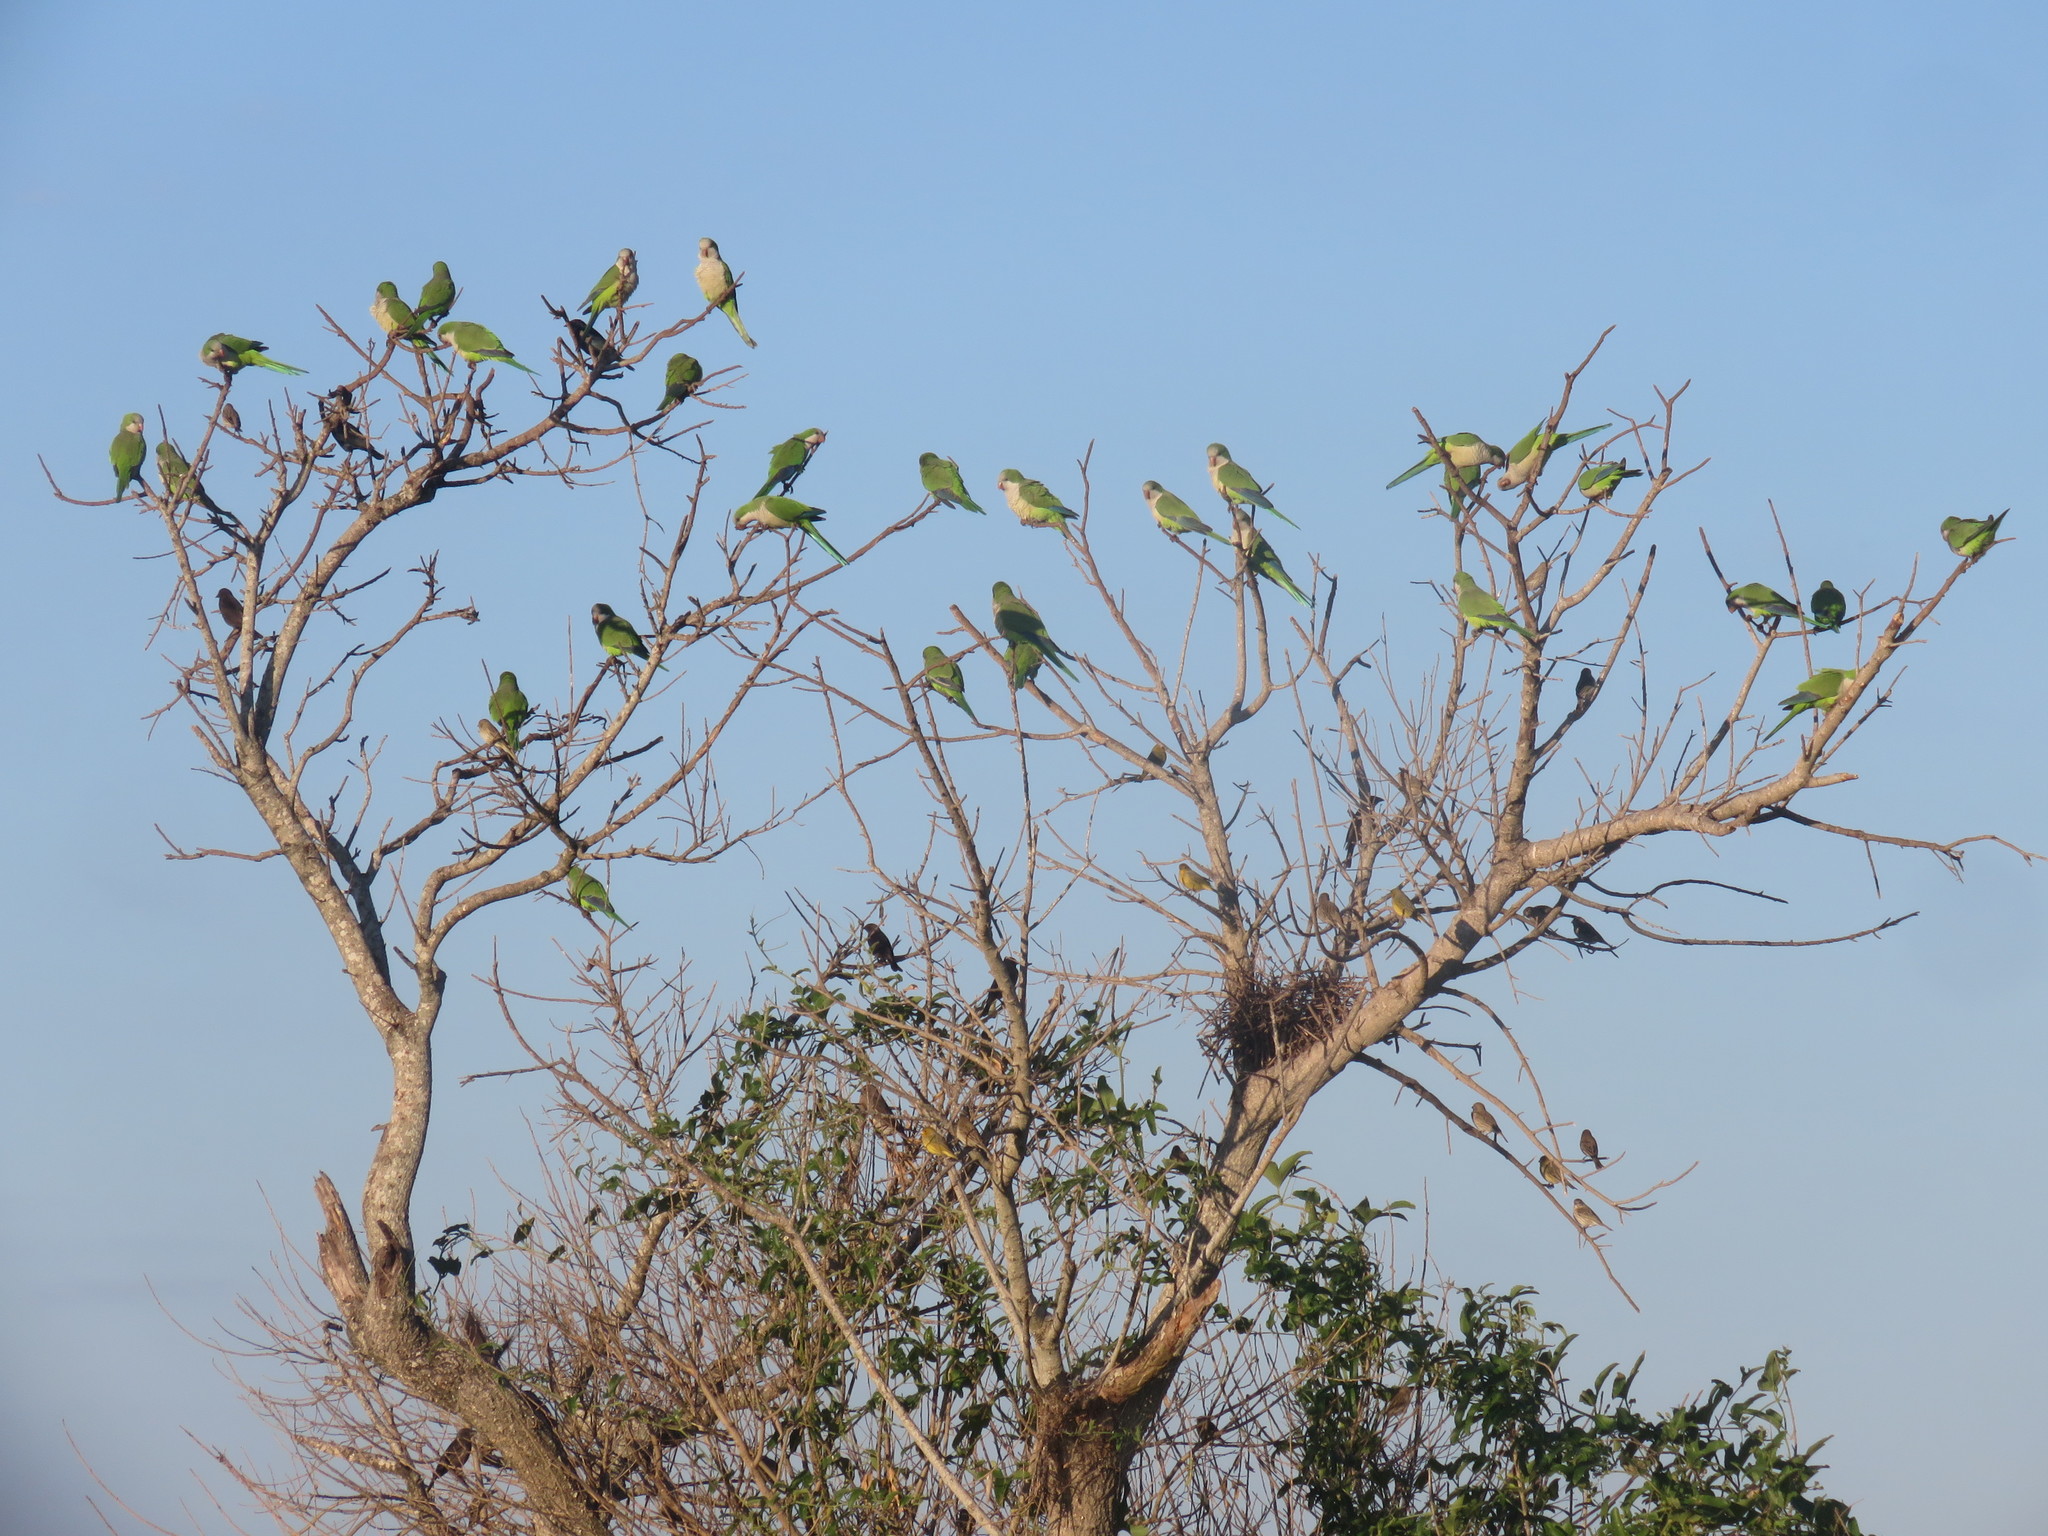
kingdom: Animalia
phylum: Chordata
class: Aves
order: Psittaciformes
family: Psittacidae
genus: Myiopsitta
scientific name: Myiopsitta monachus
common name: Monk parakeet
